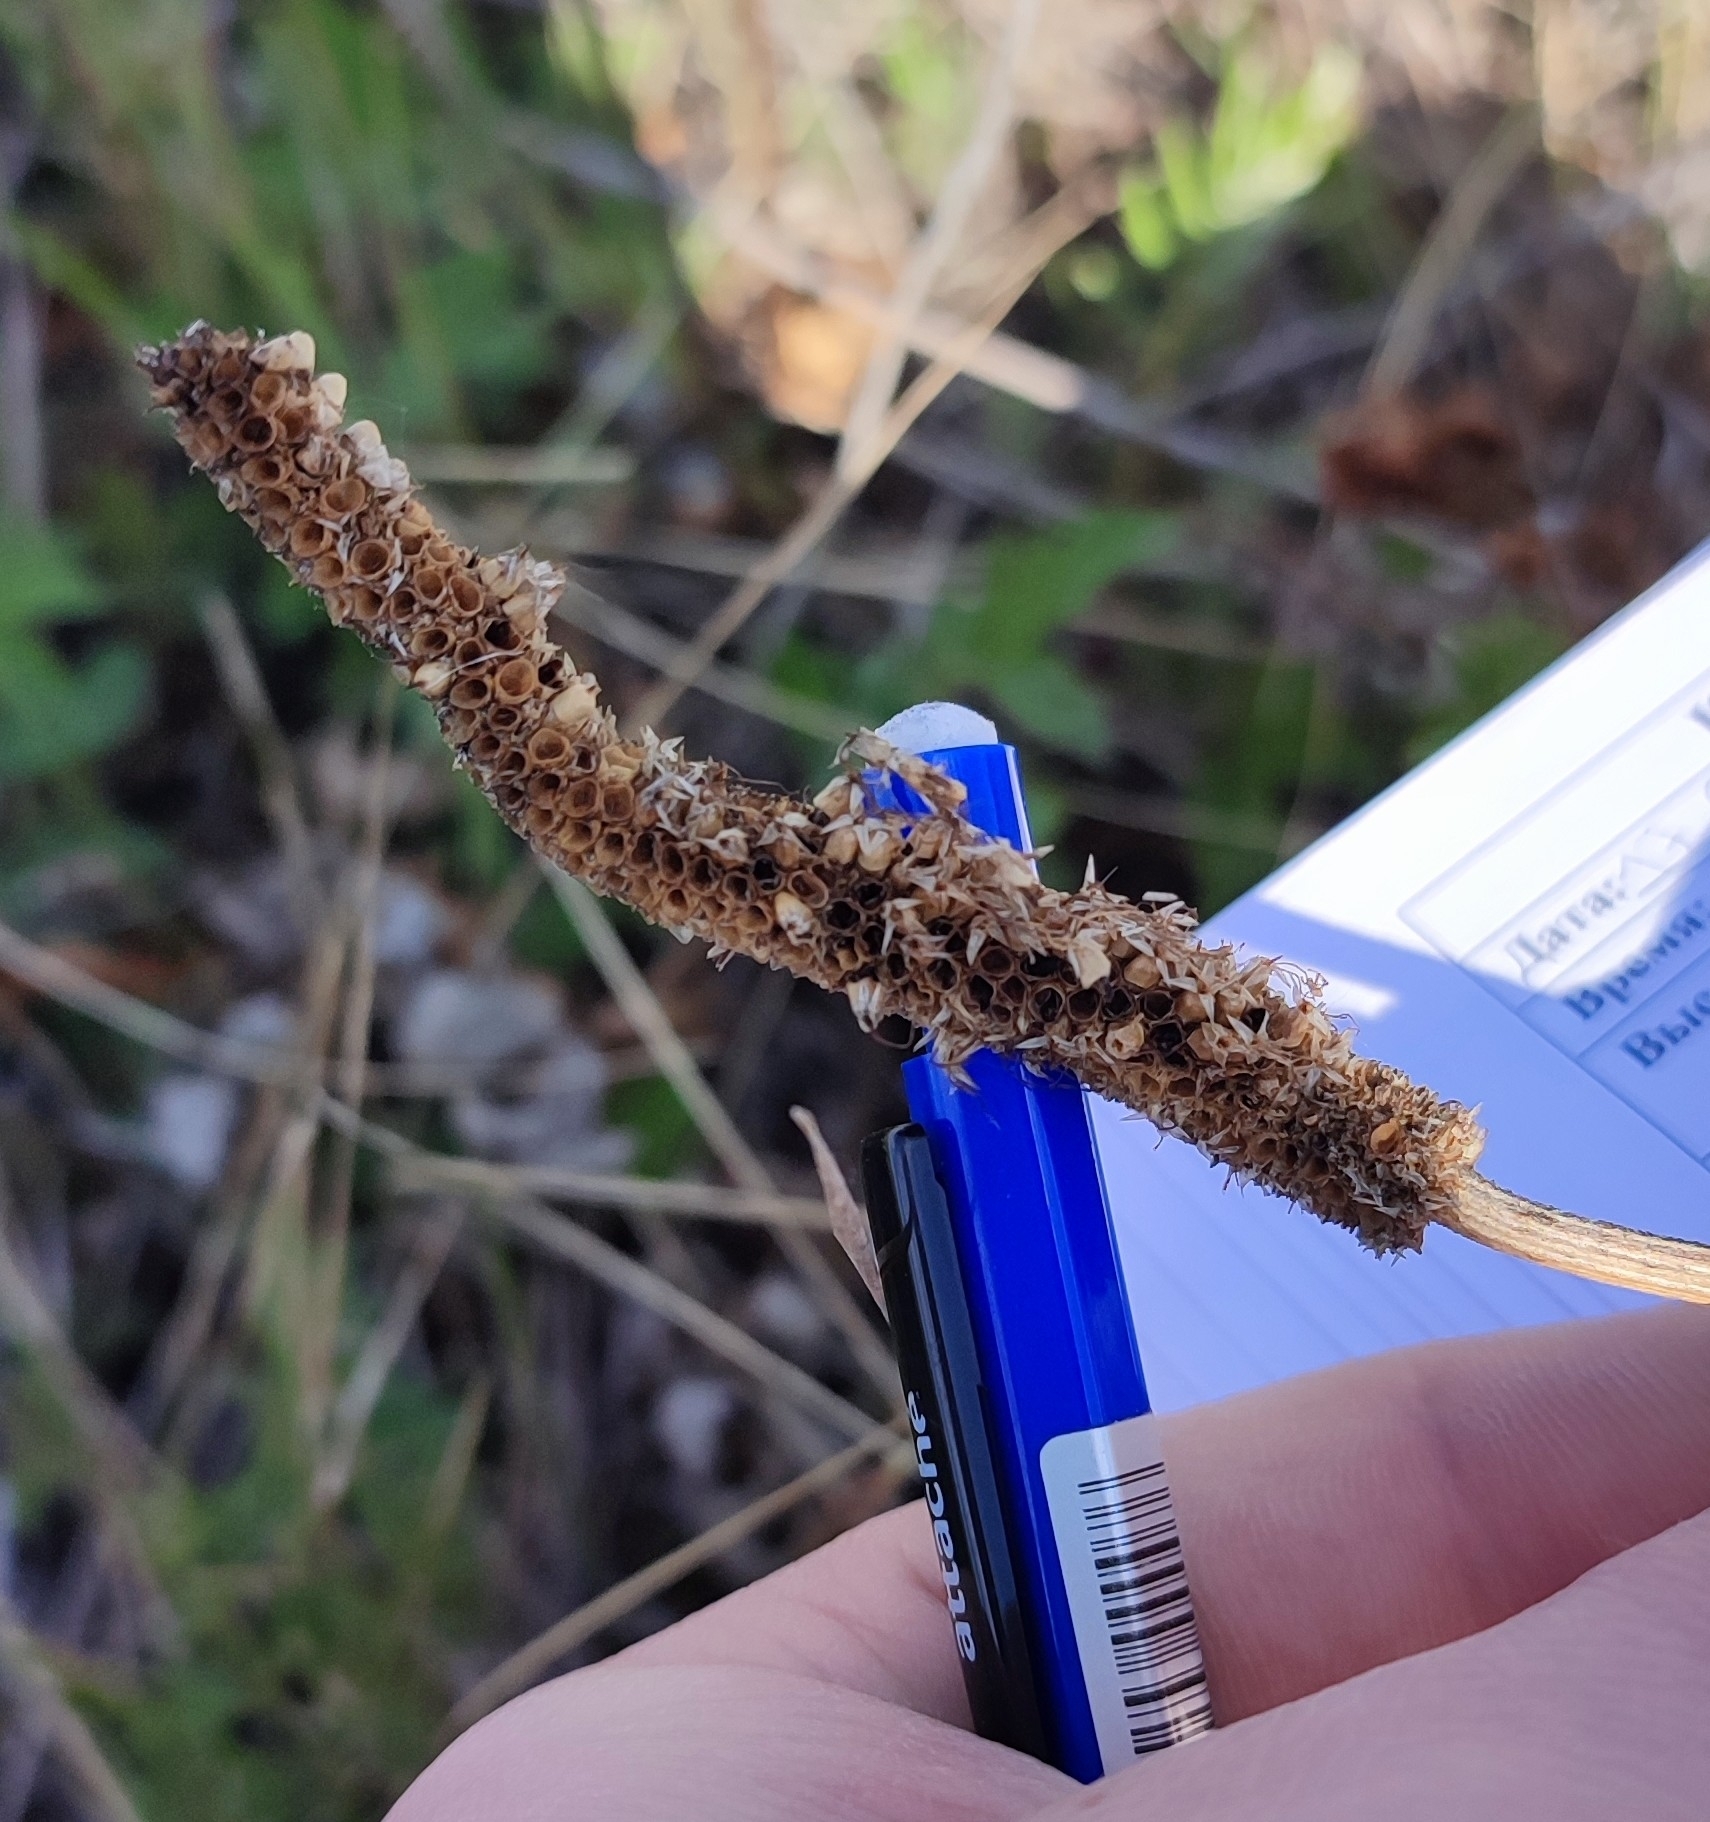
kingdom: Plantae
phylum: Tracheophyta
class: Magnoliopsida
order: Lamiales
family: Plantaginaceae
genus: Plantago
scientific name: Plantago maxima
